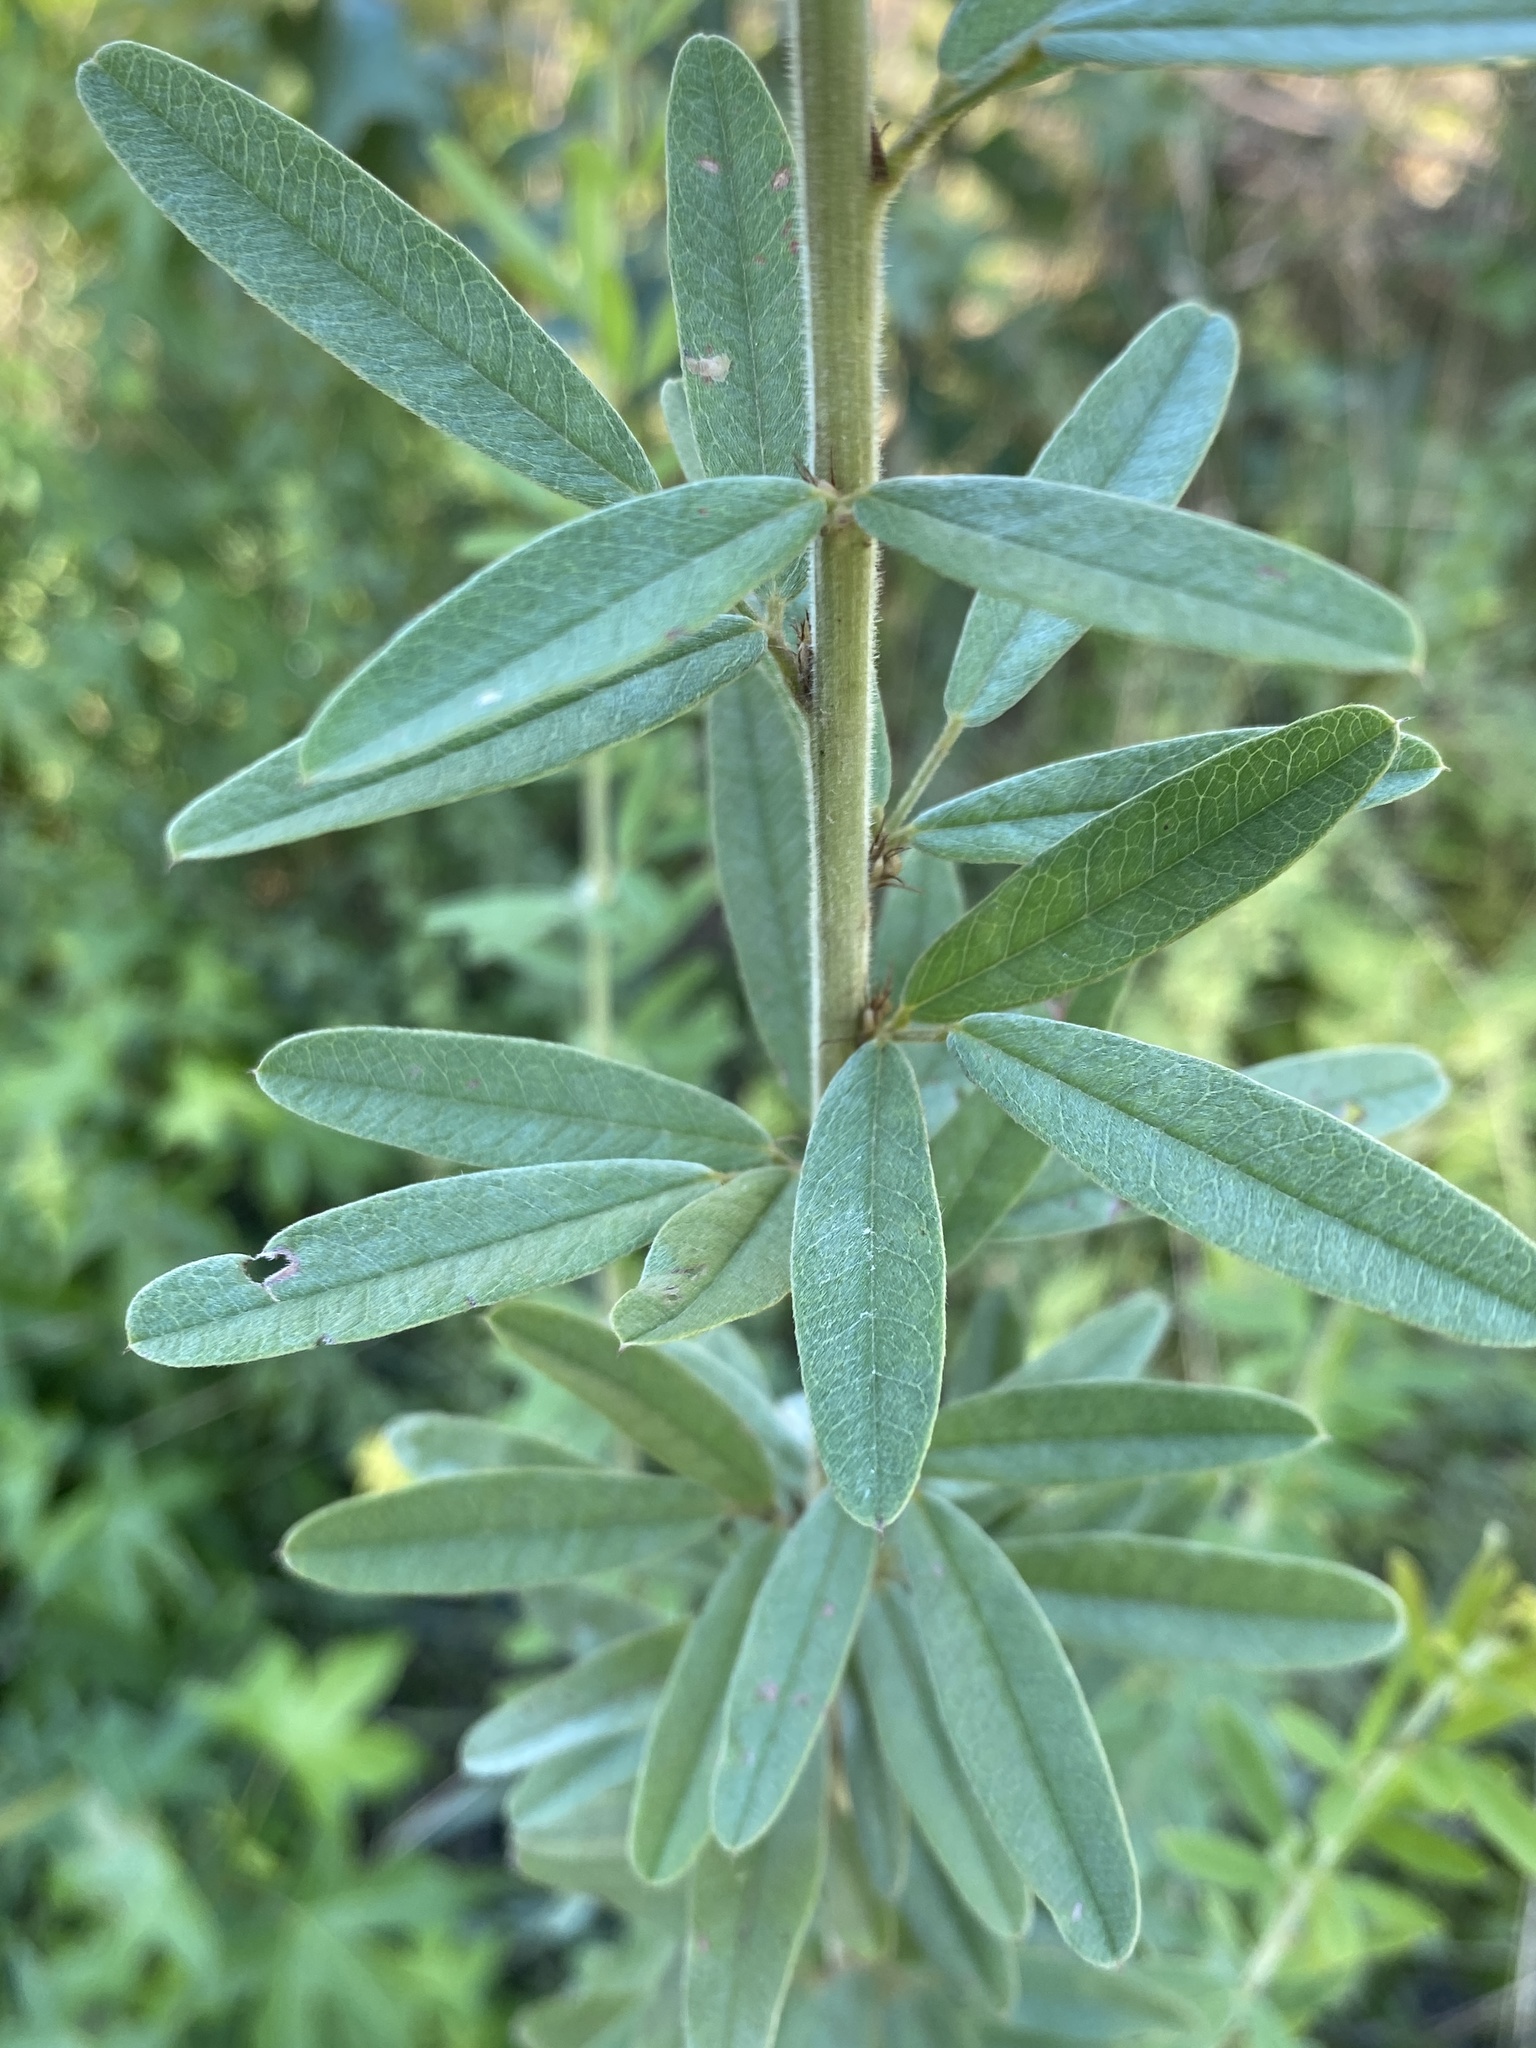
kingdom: Plantae
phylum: Tracheophyta
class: Magnoliopsida
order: Fabales
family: Fabaceae
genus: Lespedeza
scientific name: Lespedeza capitata
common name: Dusty clover
